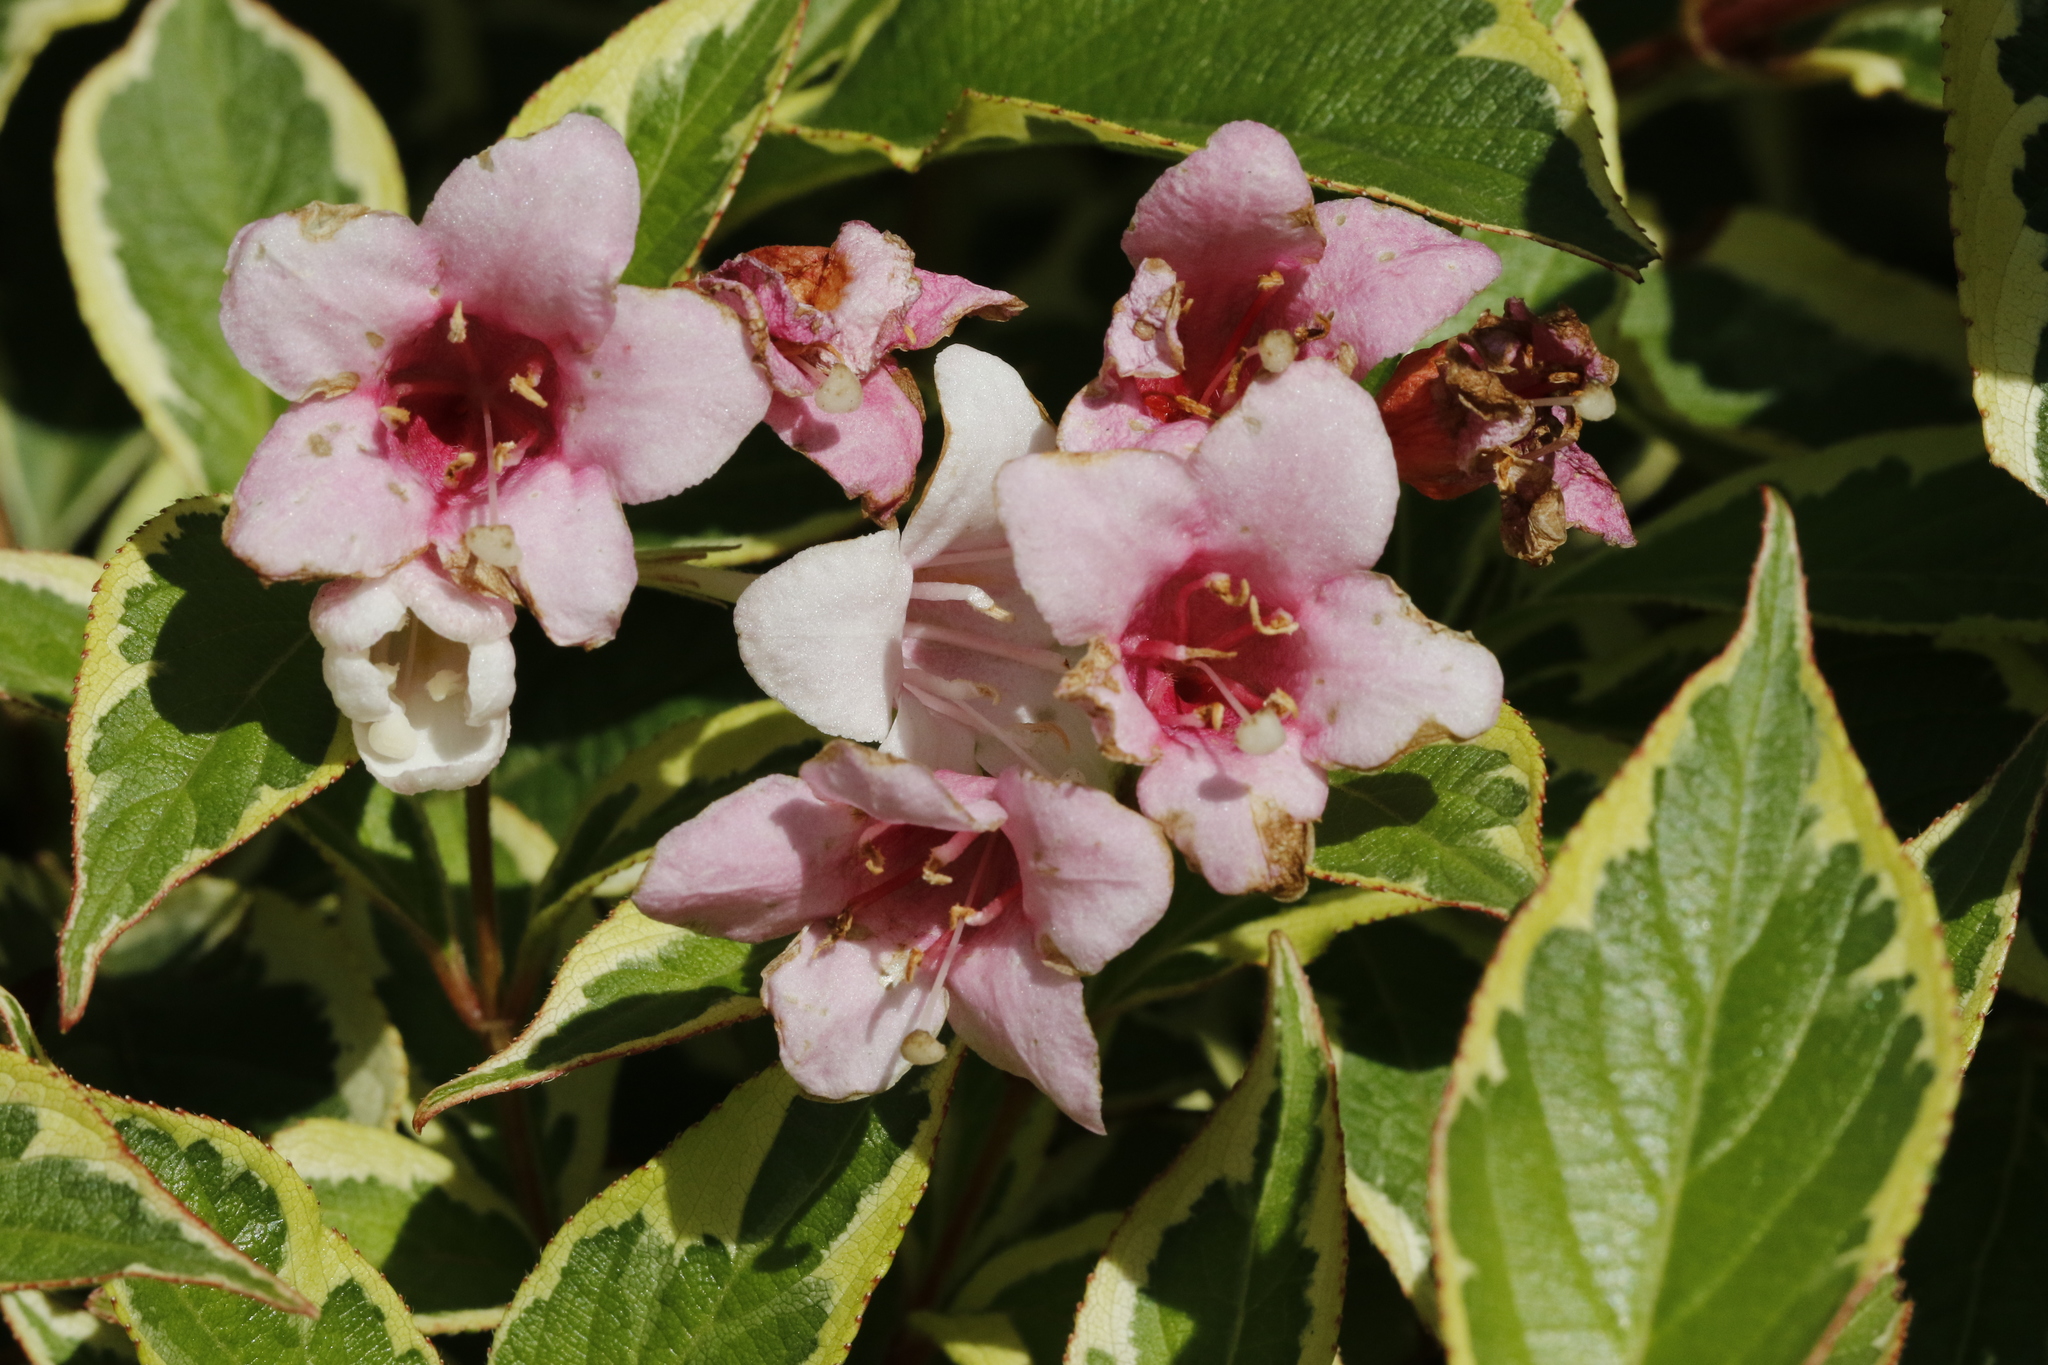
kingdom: Plantae
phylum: Tracheophyta
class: Magnoliopsida
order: Dipsacales
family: Caprifoliaceae
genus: Weigela
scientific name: Weigela florida
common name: Weigelia
